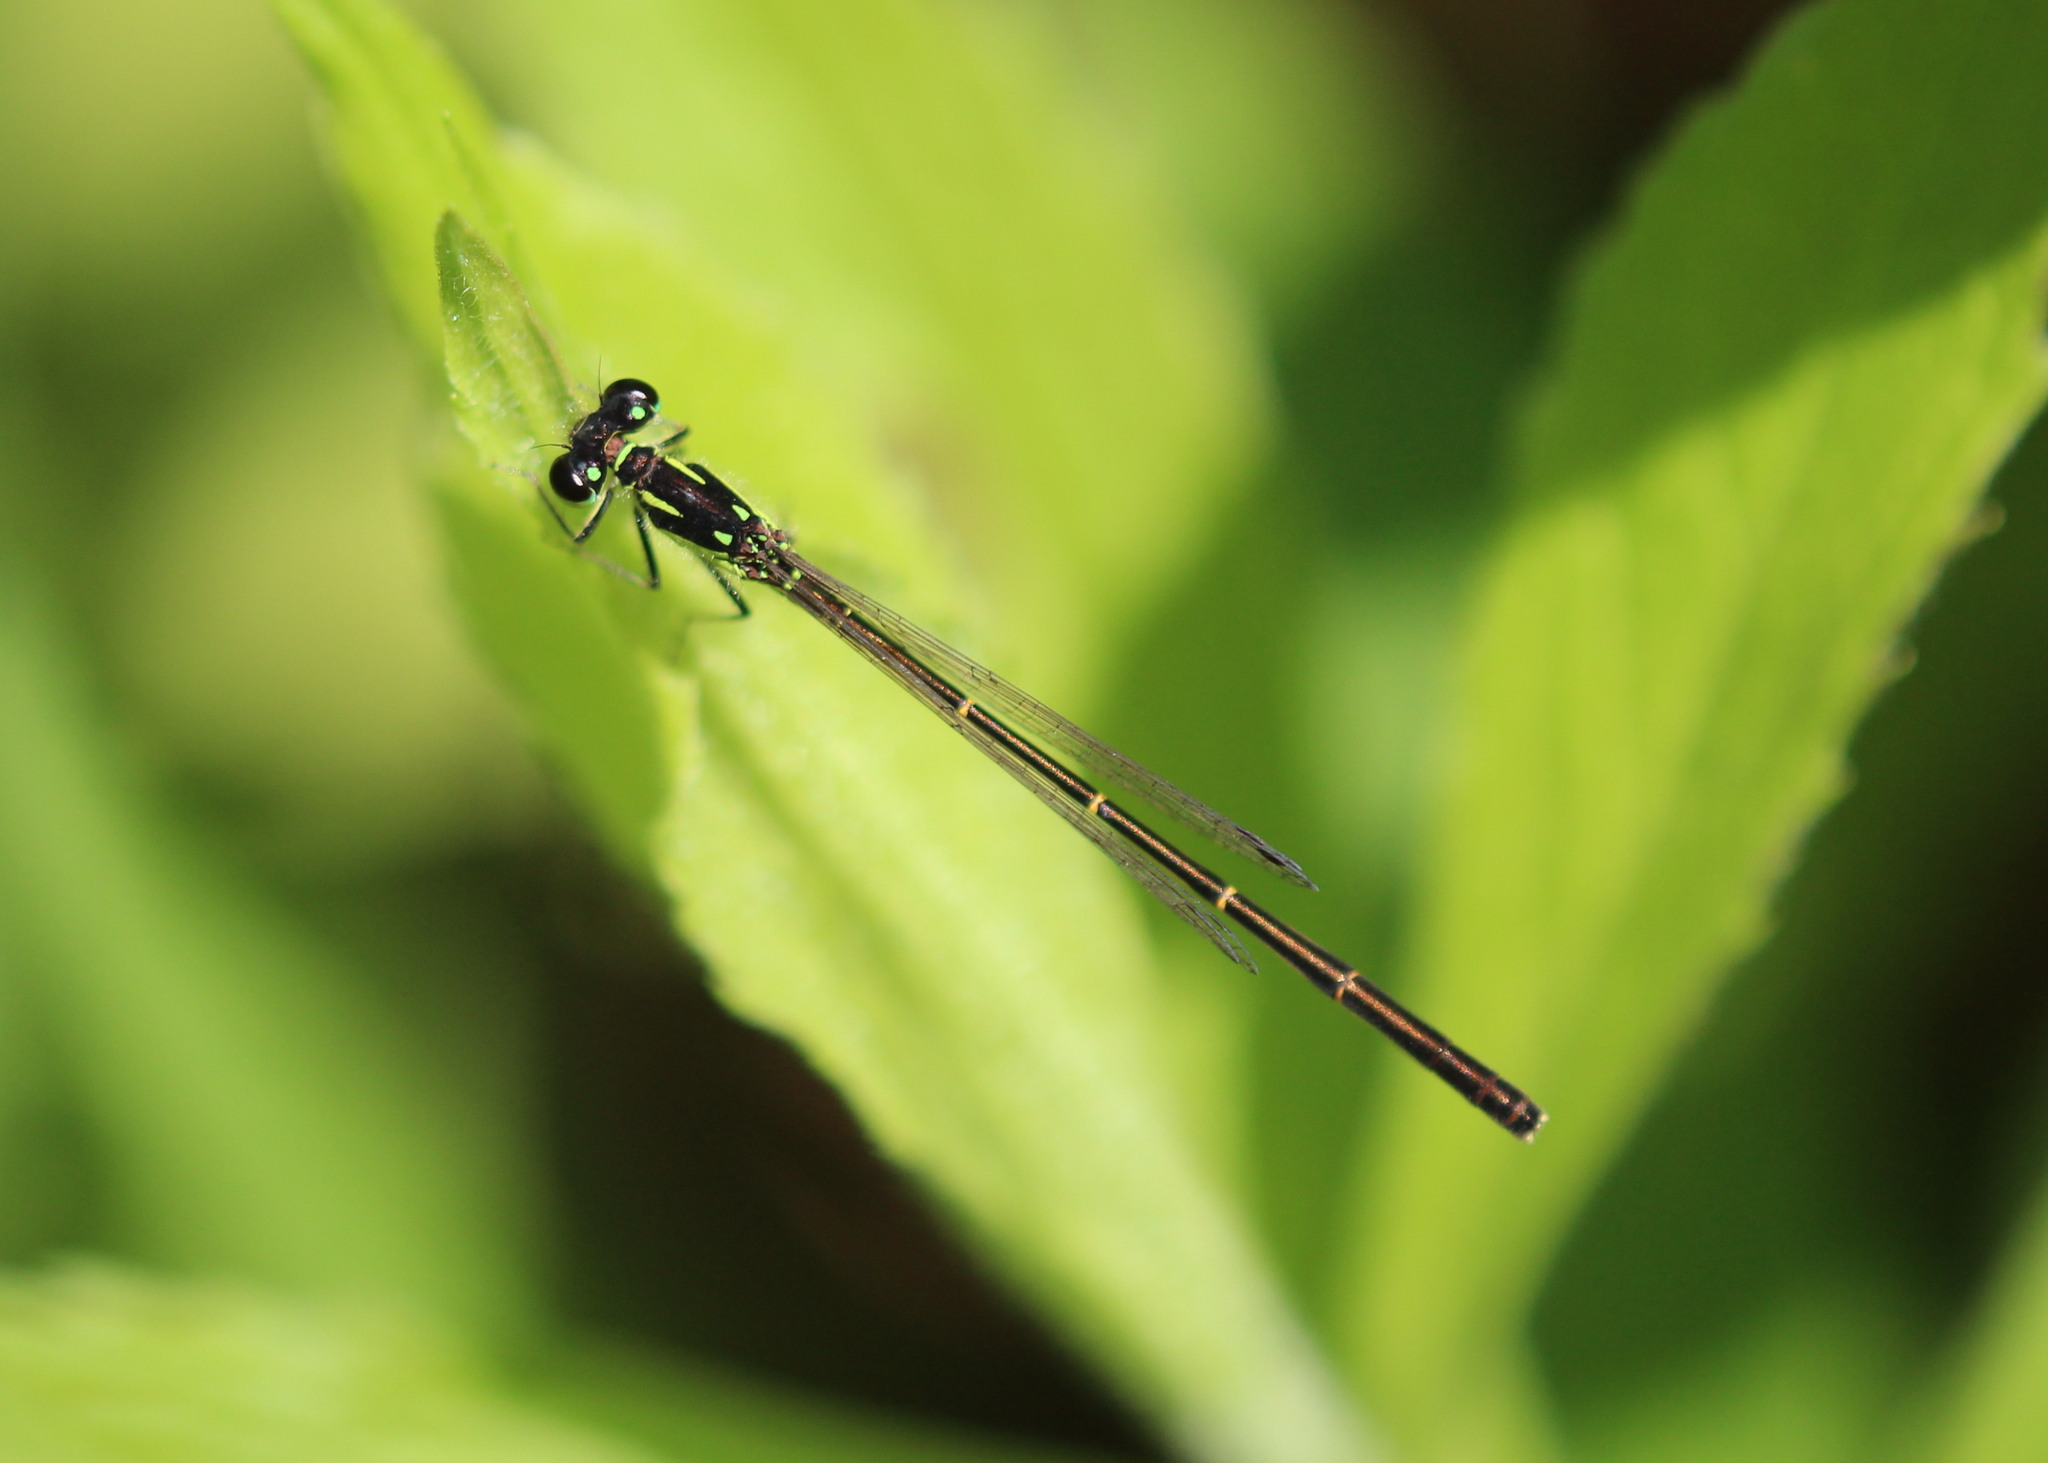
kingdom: Animalia
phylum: Arthropoda
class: Insecta
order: Odonata
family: Coenagrionidae
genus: Ischnura
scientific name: Ischnura posita
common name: Fragile forktail
